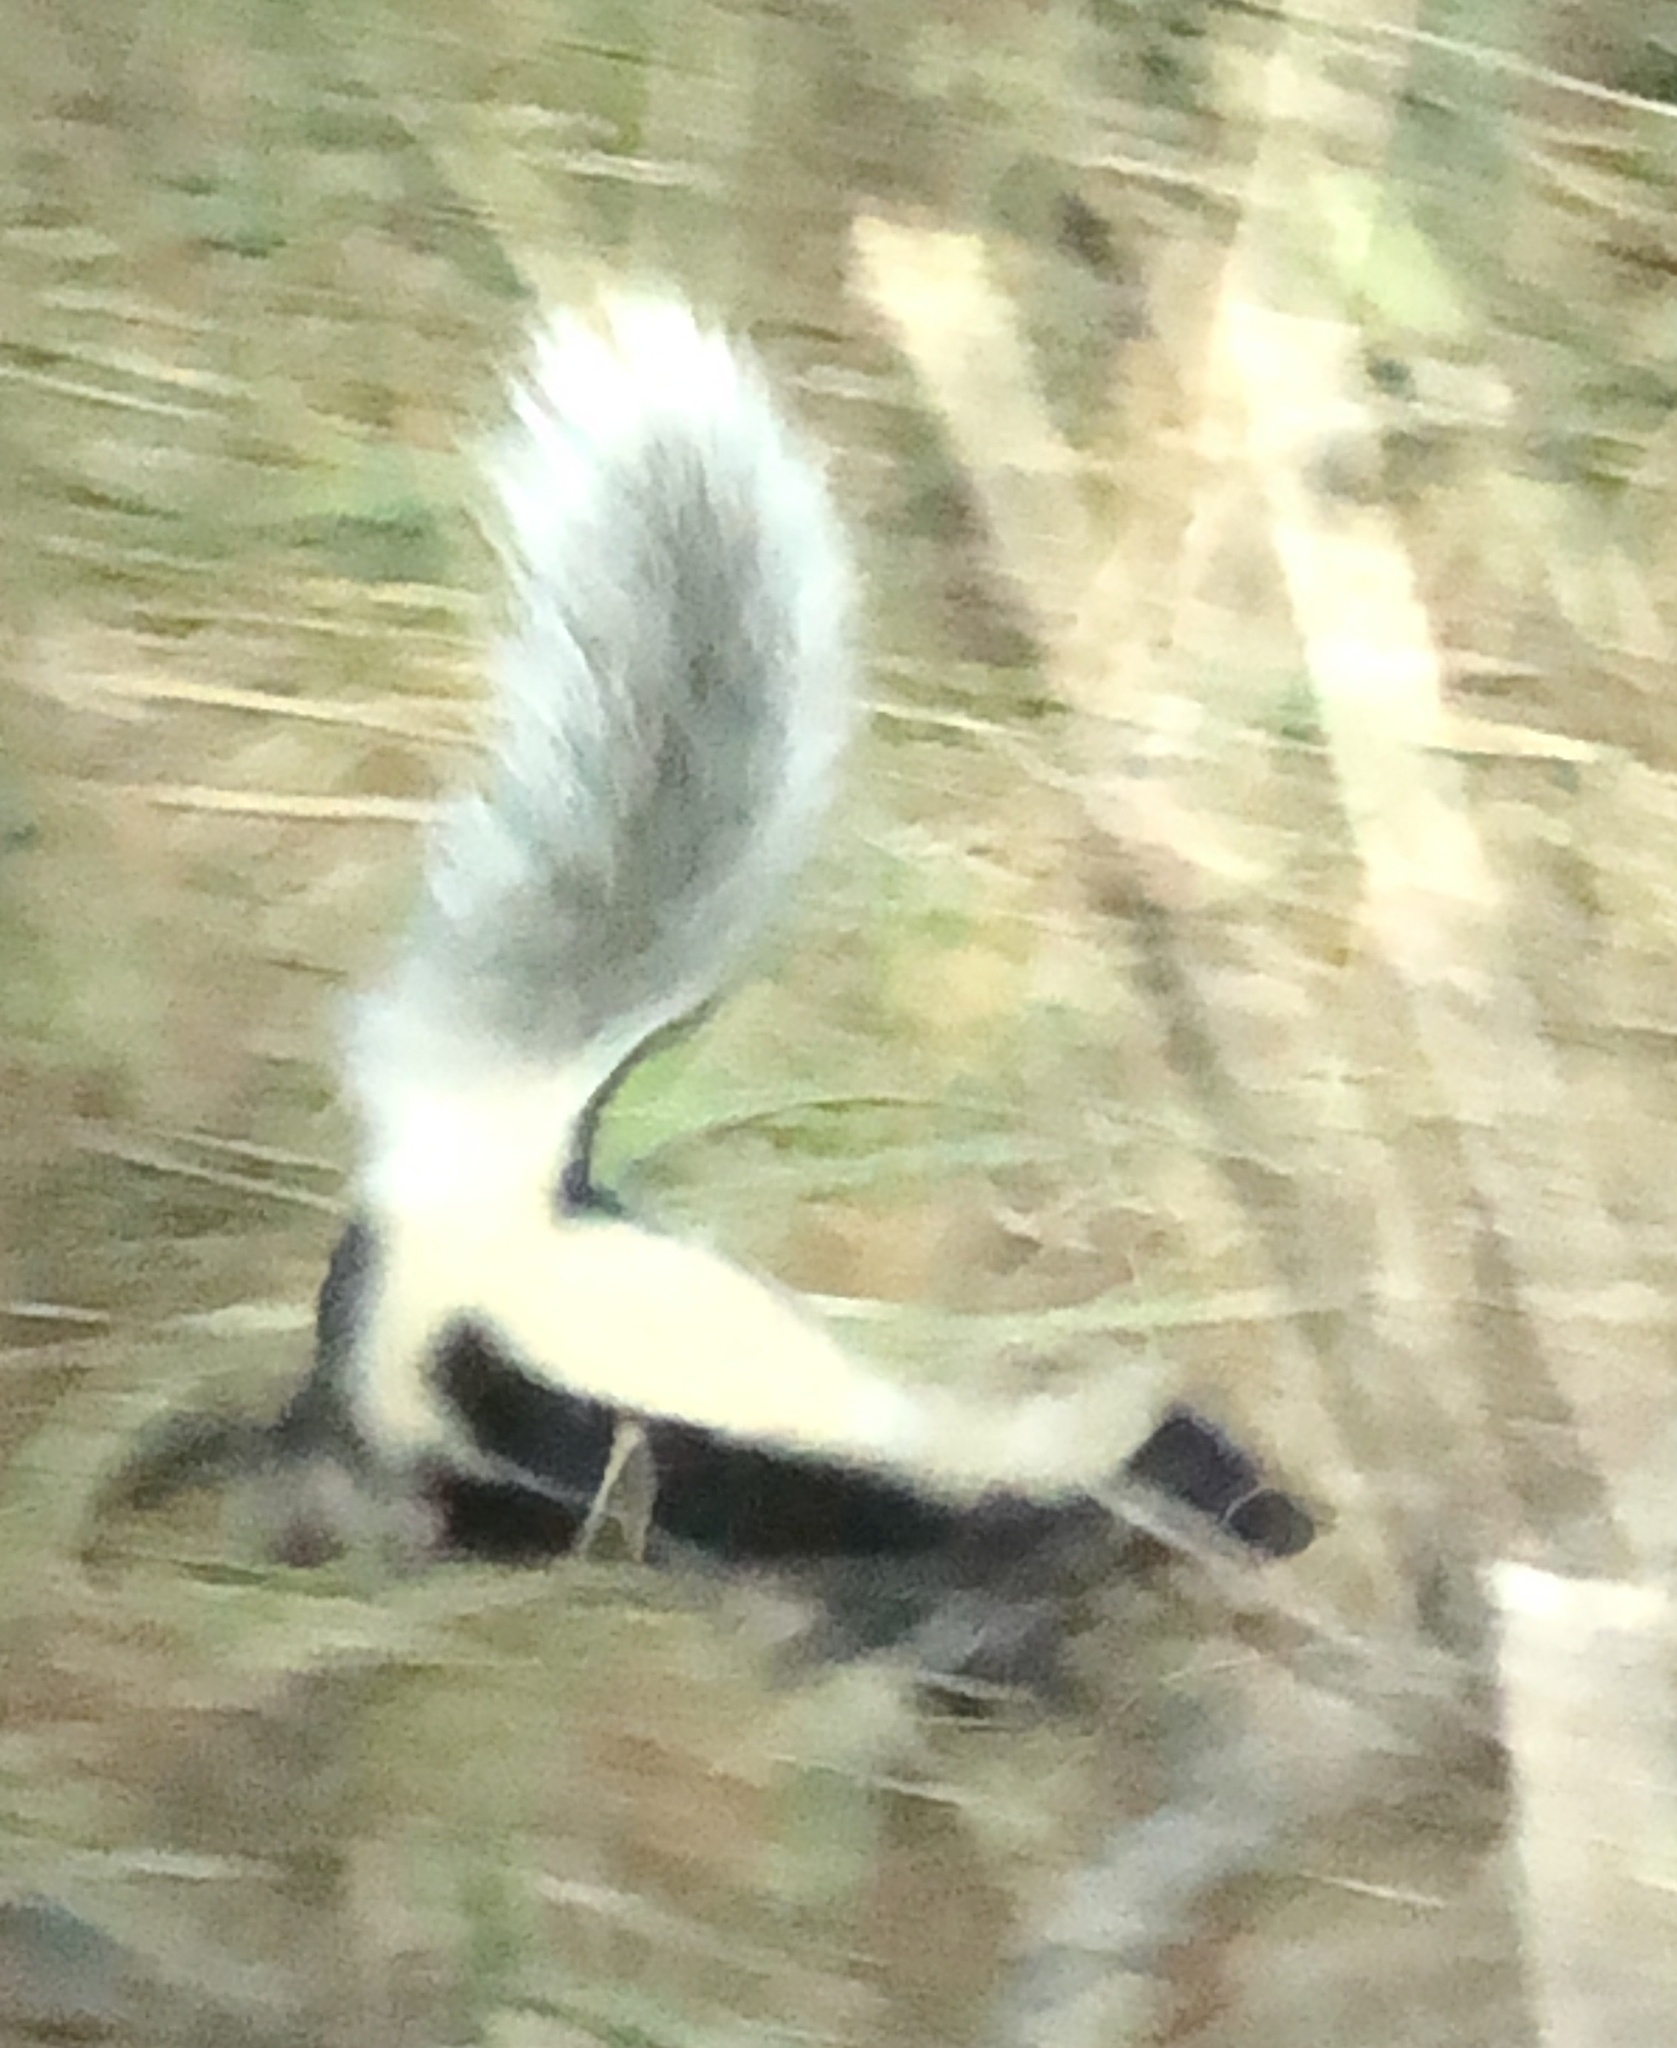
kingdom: Animalia
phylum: Chordata
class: Mammalia
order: Carnivora
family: Mephitidae
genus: Mephitis
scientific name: Mephitis mephitis
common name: Striped skunk
